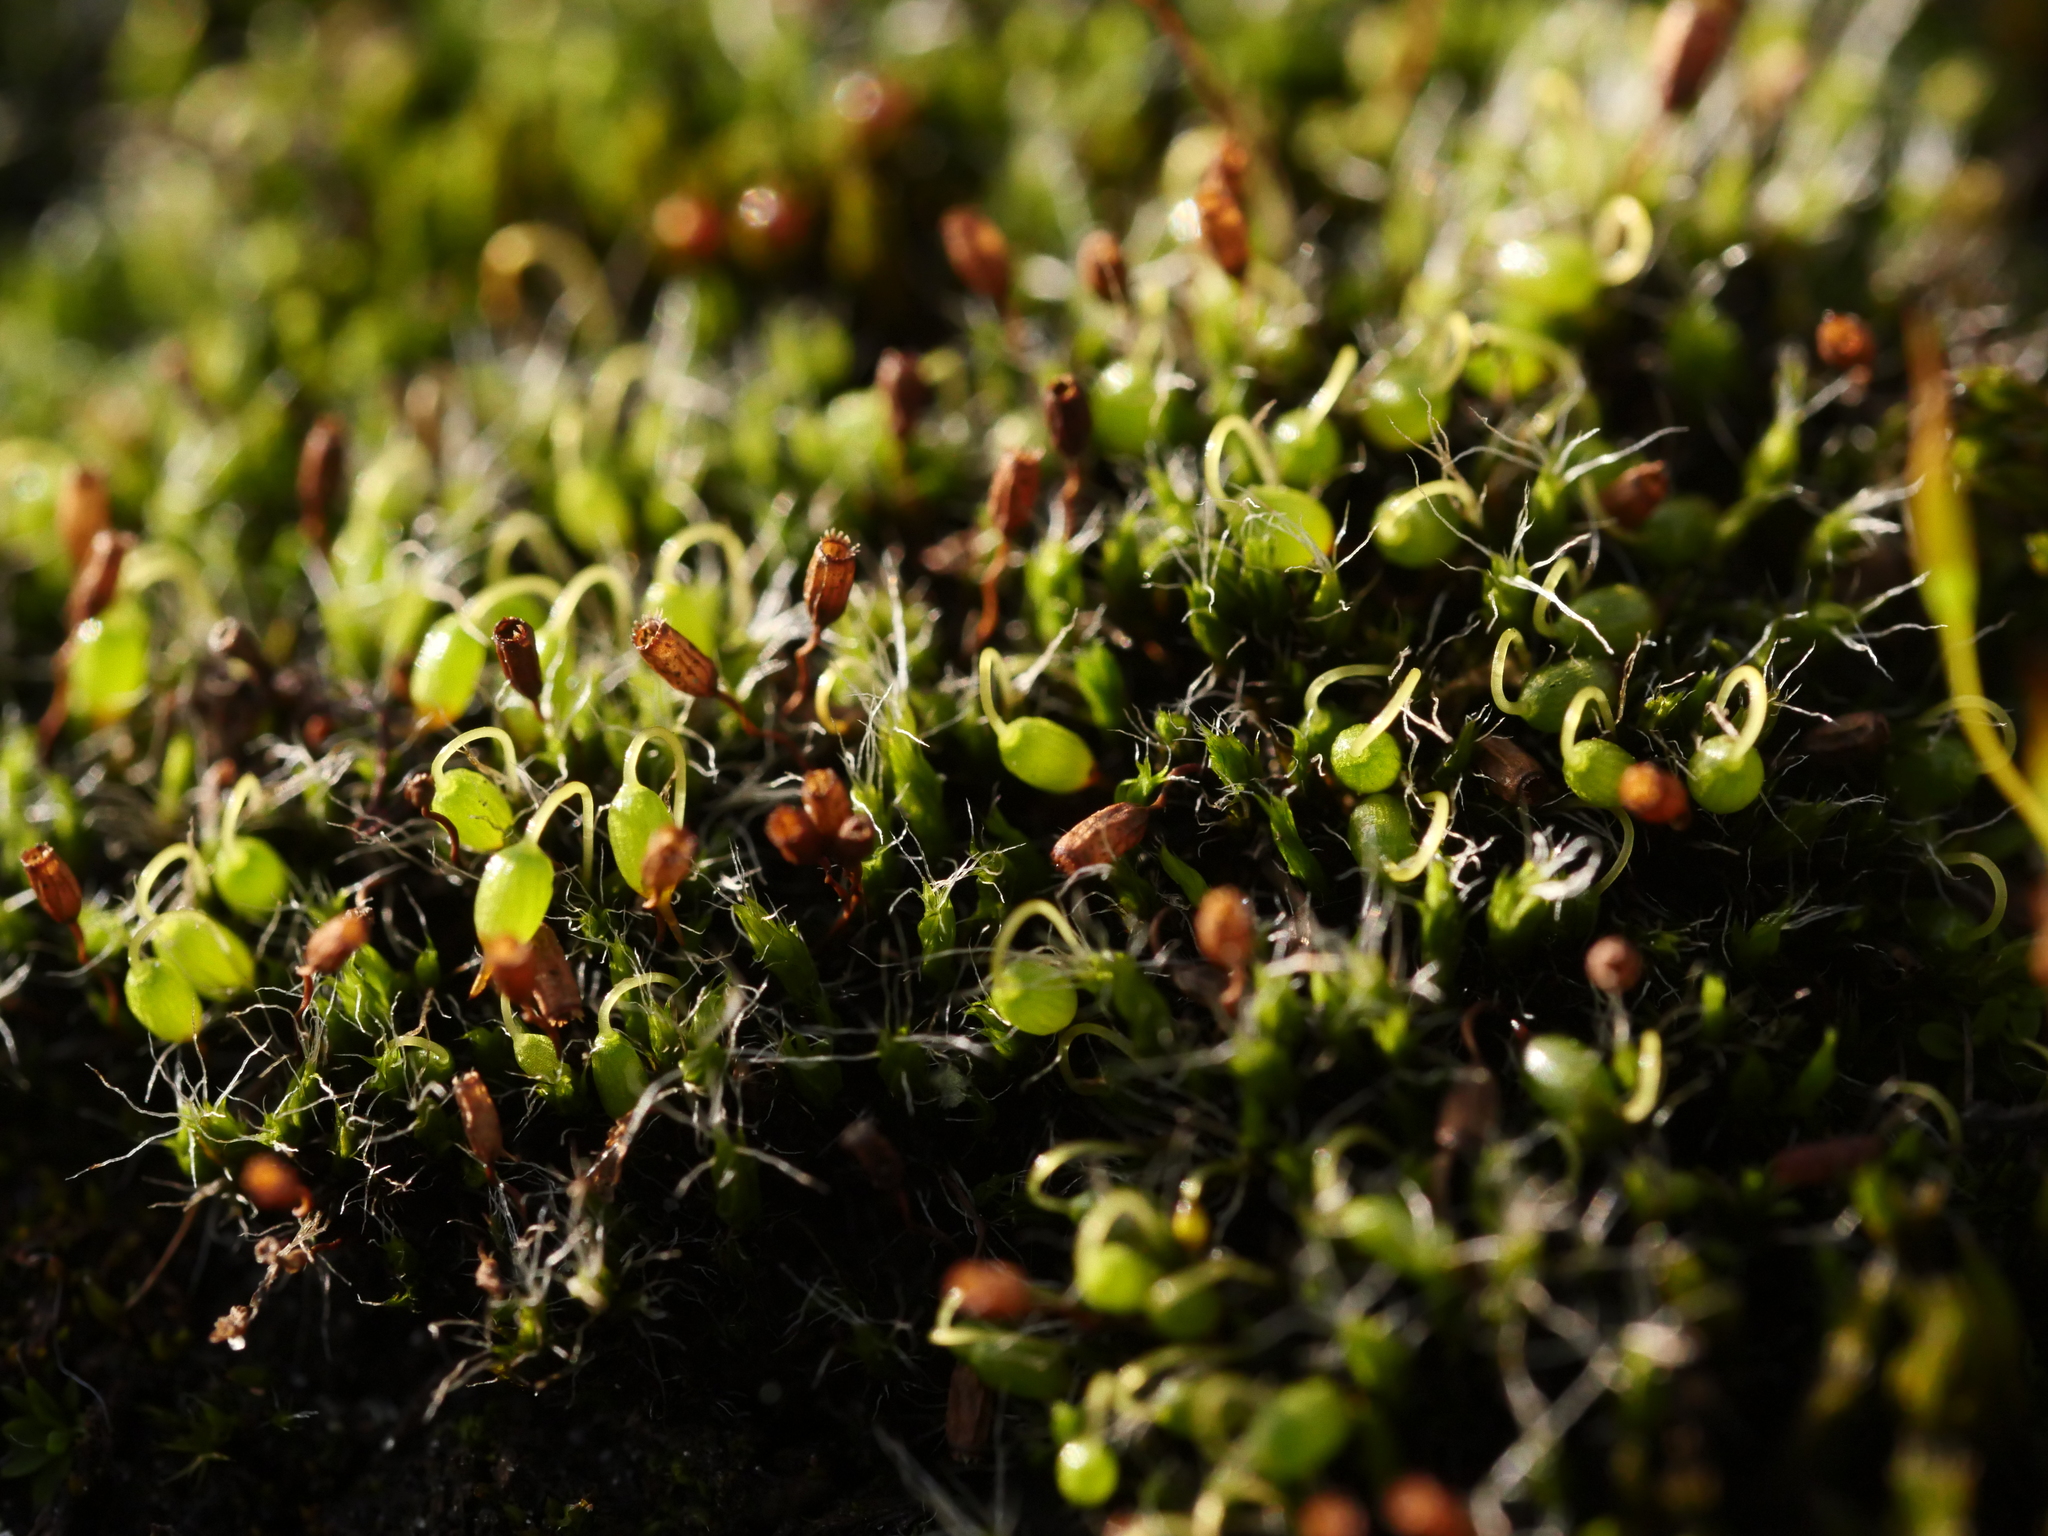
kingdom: Plantae
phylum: Bryophyta
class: Bryopsida
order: Grimmiales
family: Grimmiaceae
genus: Grimmia
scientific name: Grimmia pulvinata
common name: Grey-cushioned grimmia
